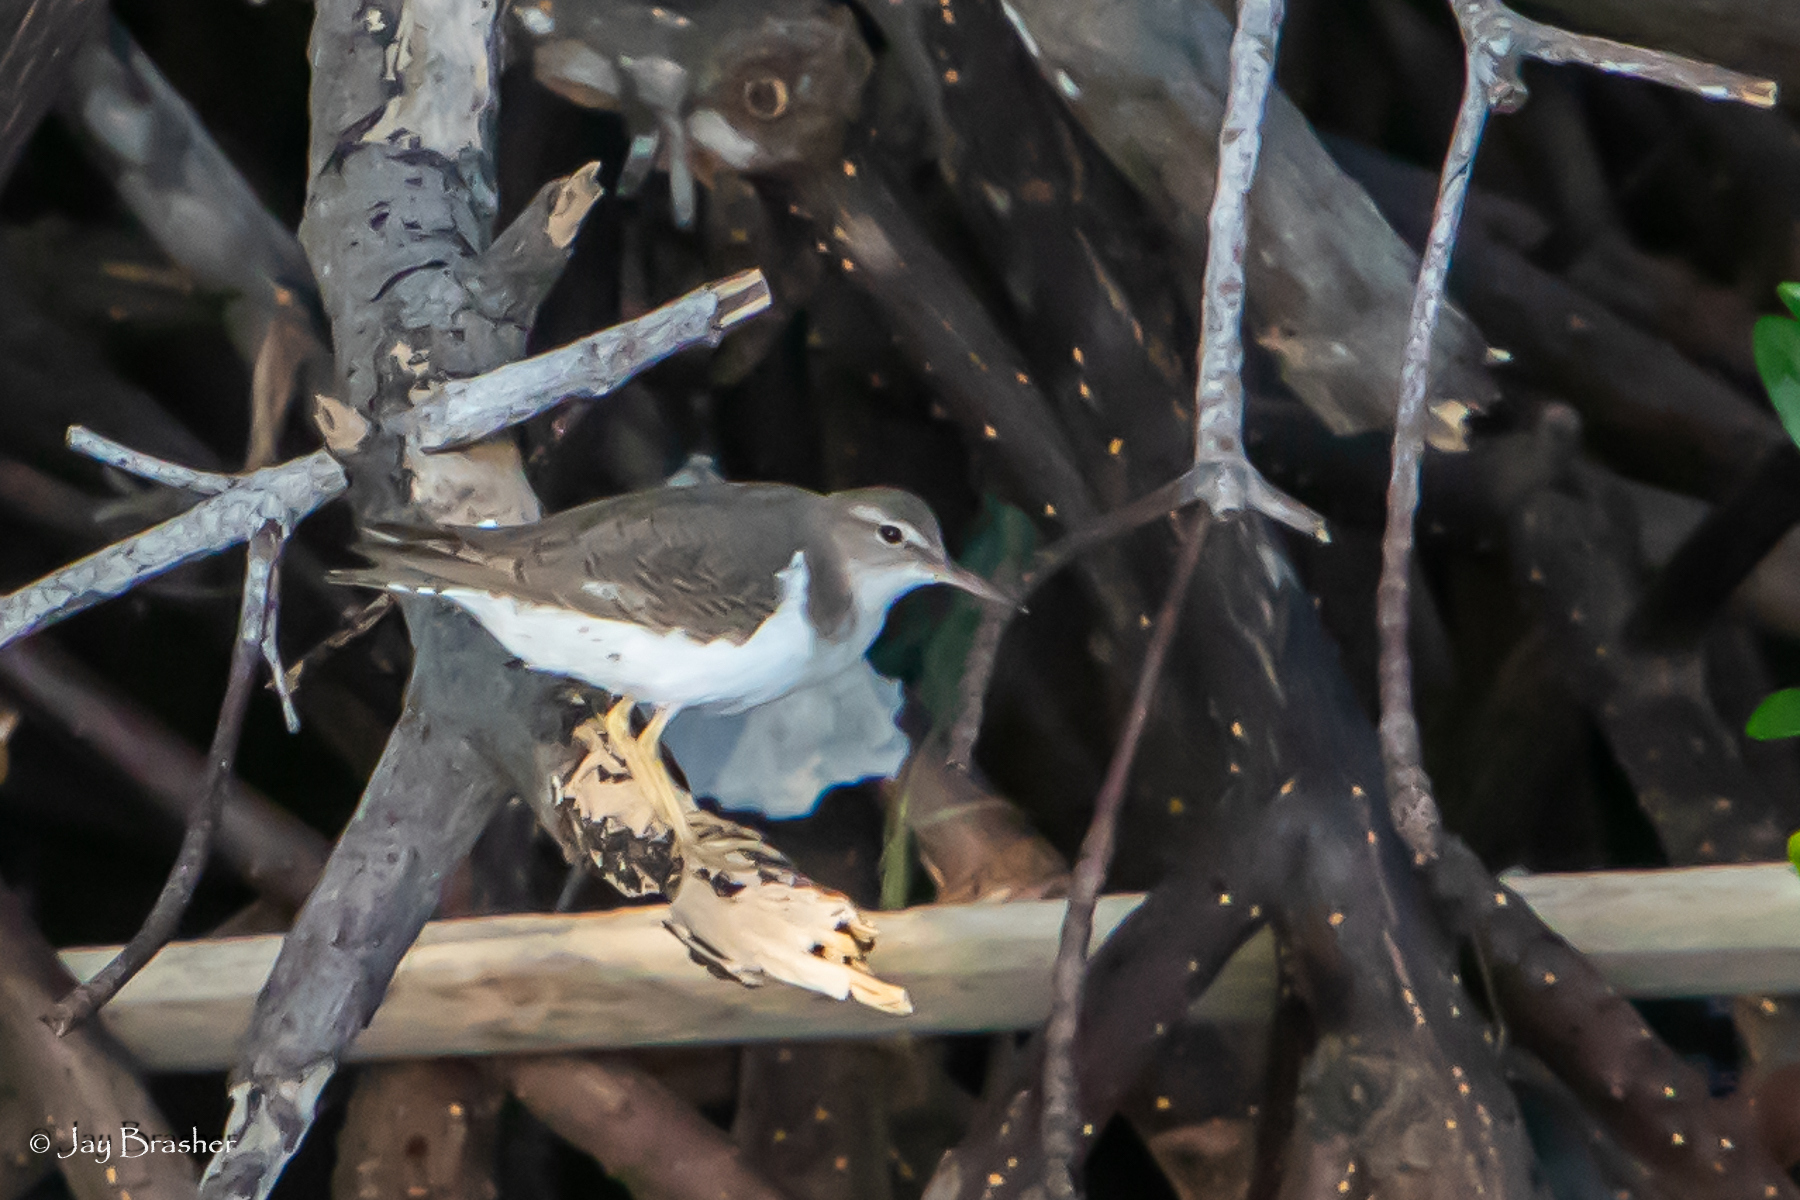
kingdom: Animalia
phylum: Chordata
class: Aves
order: Charadriiformes
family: Scolopacidae
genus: Actitis
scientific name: Actitis macularius
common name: Spotted sandpiper
